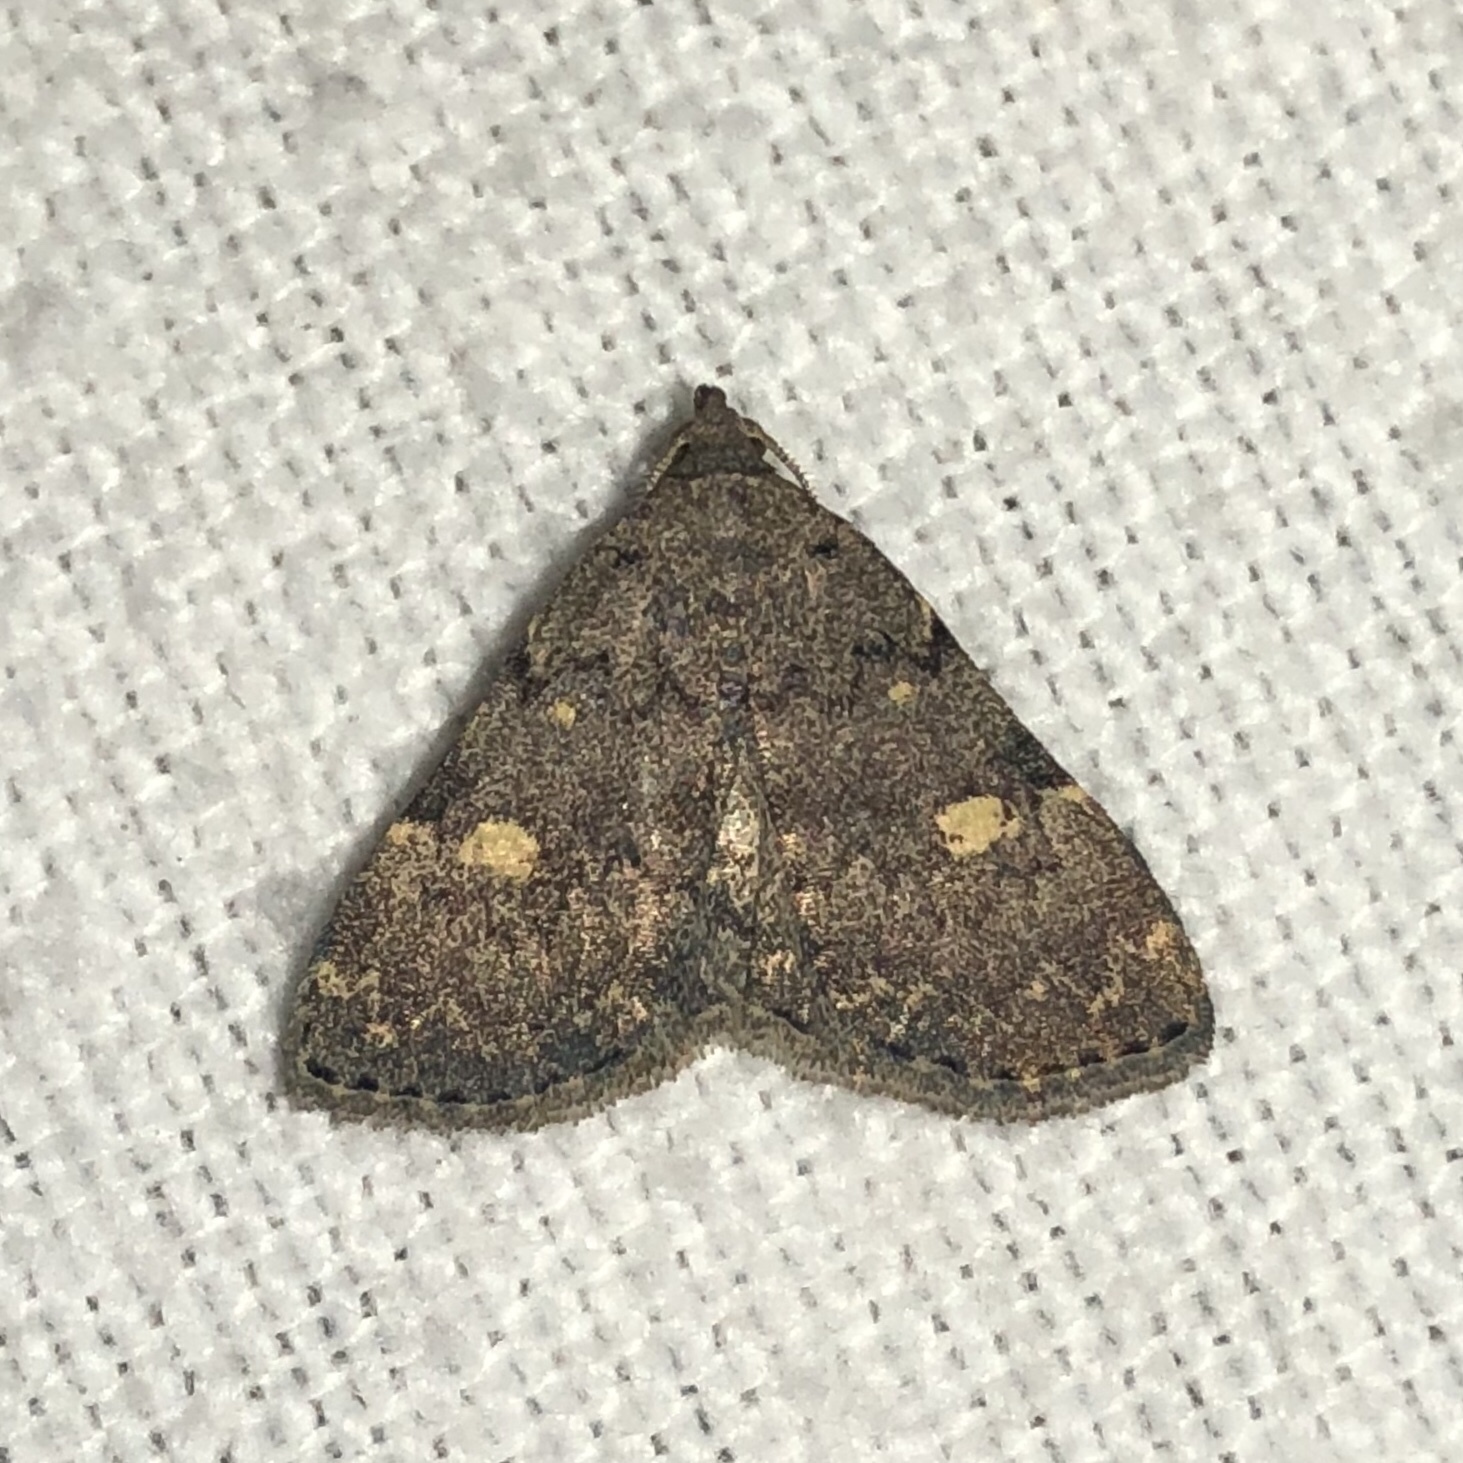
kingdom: Animalia
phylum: Arthropoda
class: Insecta
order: Lepidoptera
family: Erebidae
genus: Idia
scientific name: Idia aemula
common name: Common idia moth
